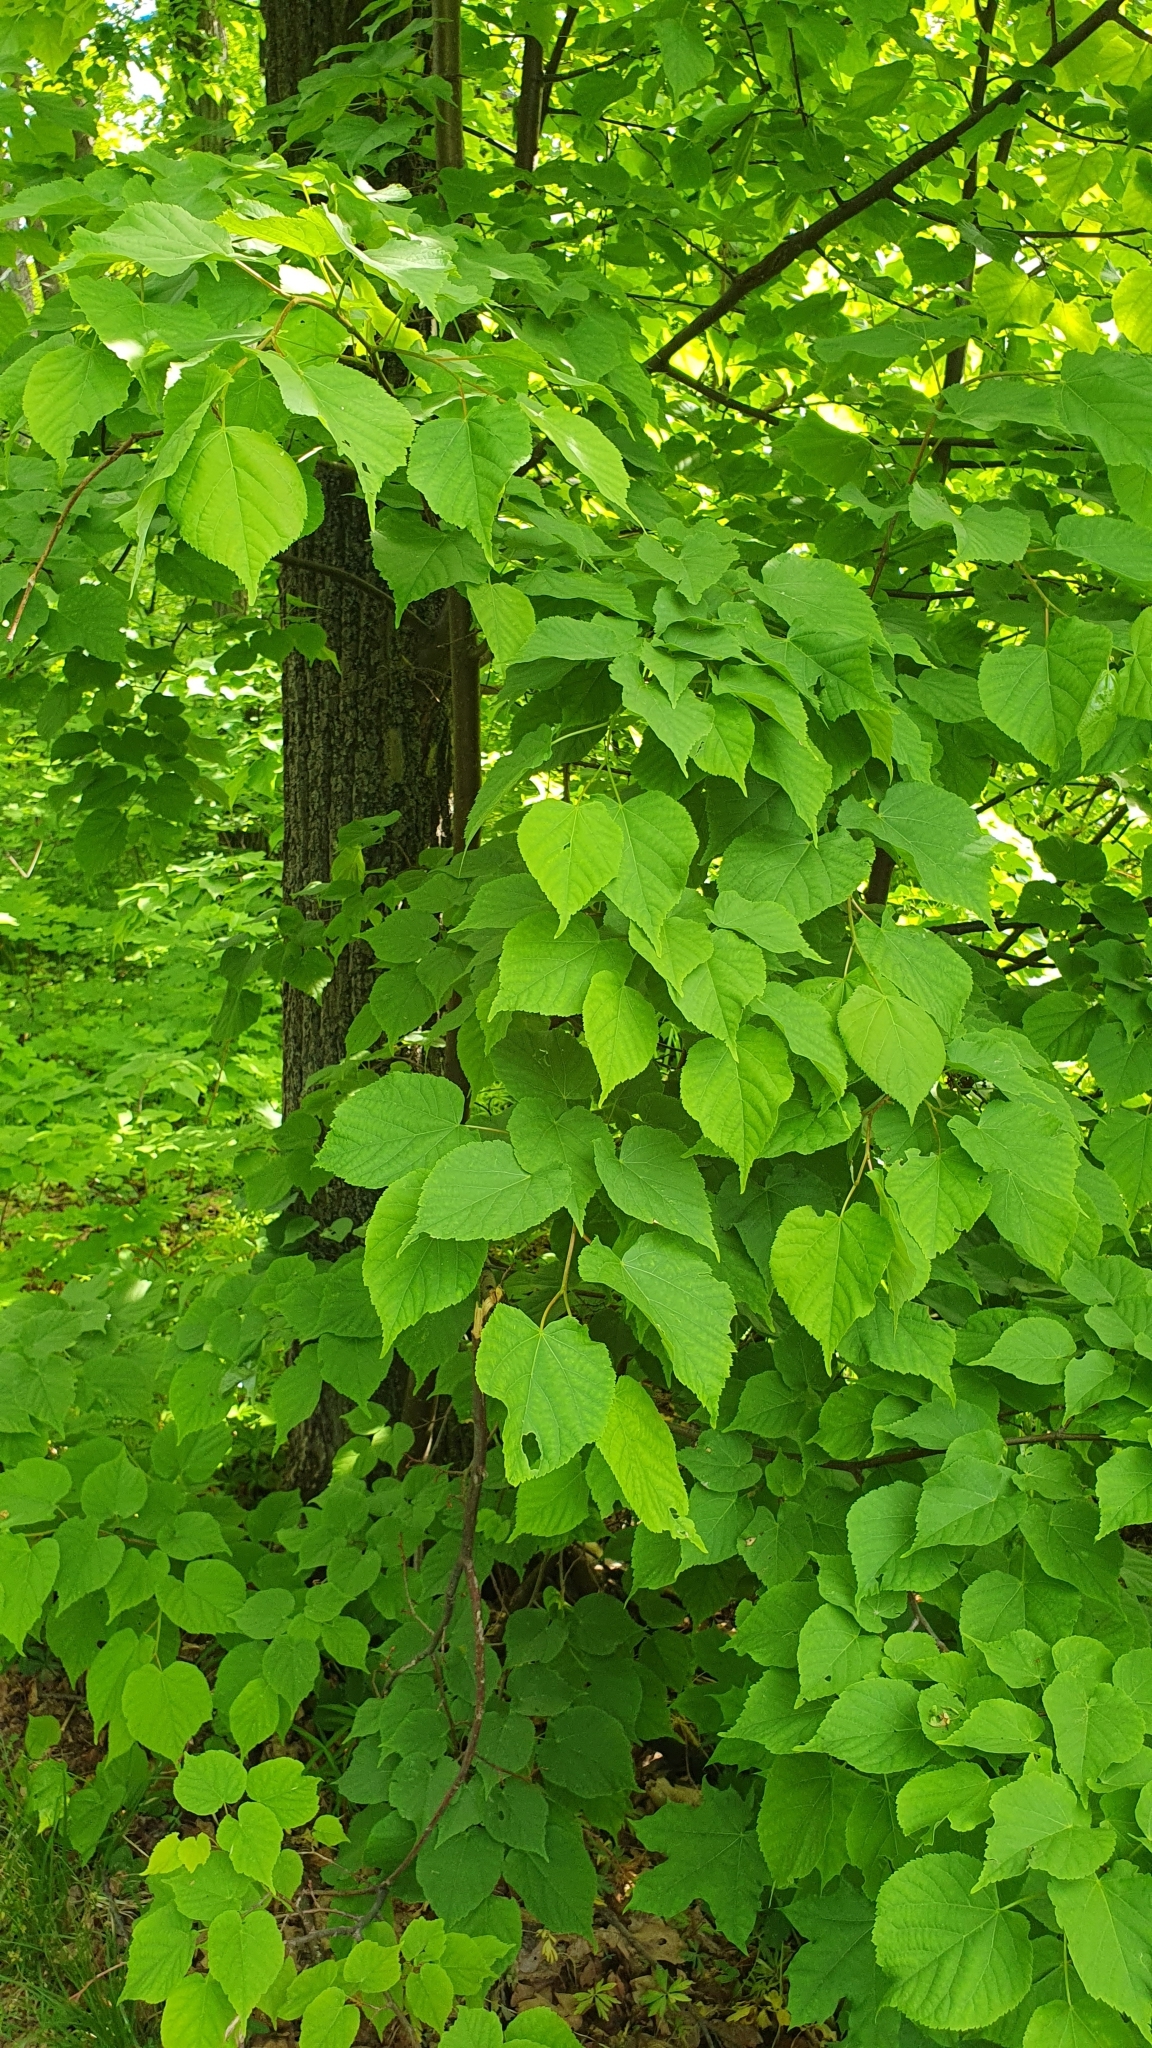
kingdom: Plantae
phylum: Tracheophyta
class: Magnoliopsida
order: Malvales
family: Malvaceae
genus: Tilia
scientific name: Tilia cordata
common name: Small-leaved lime
